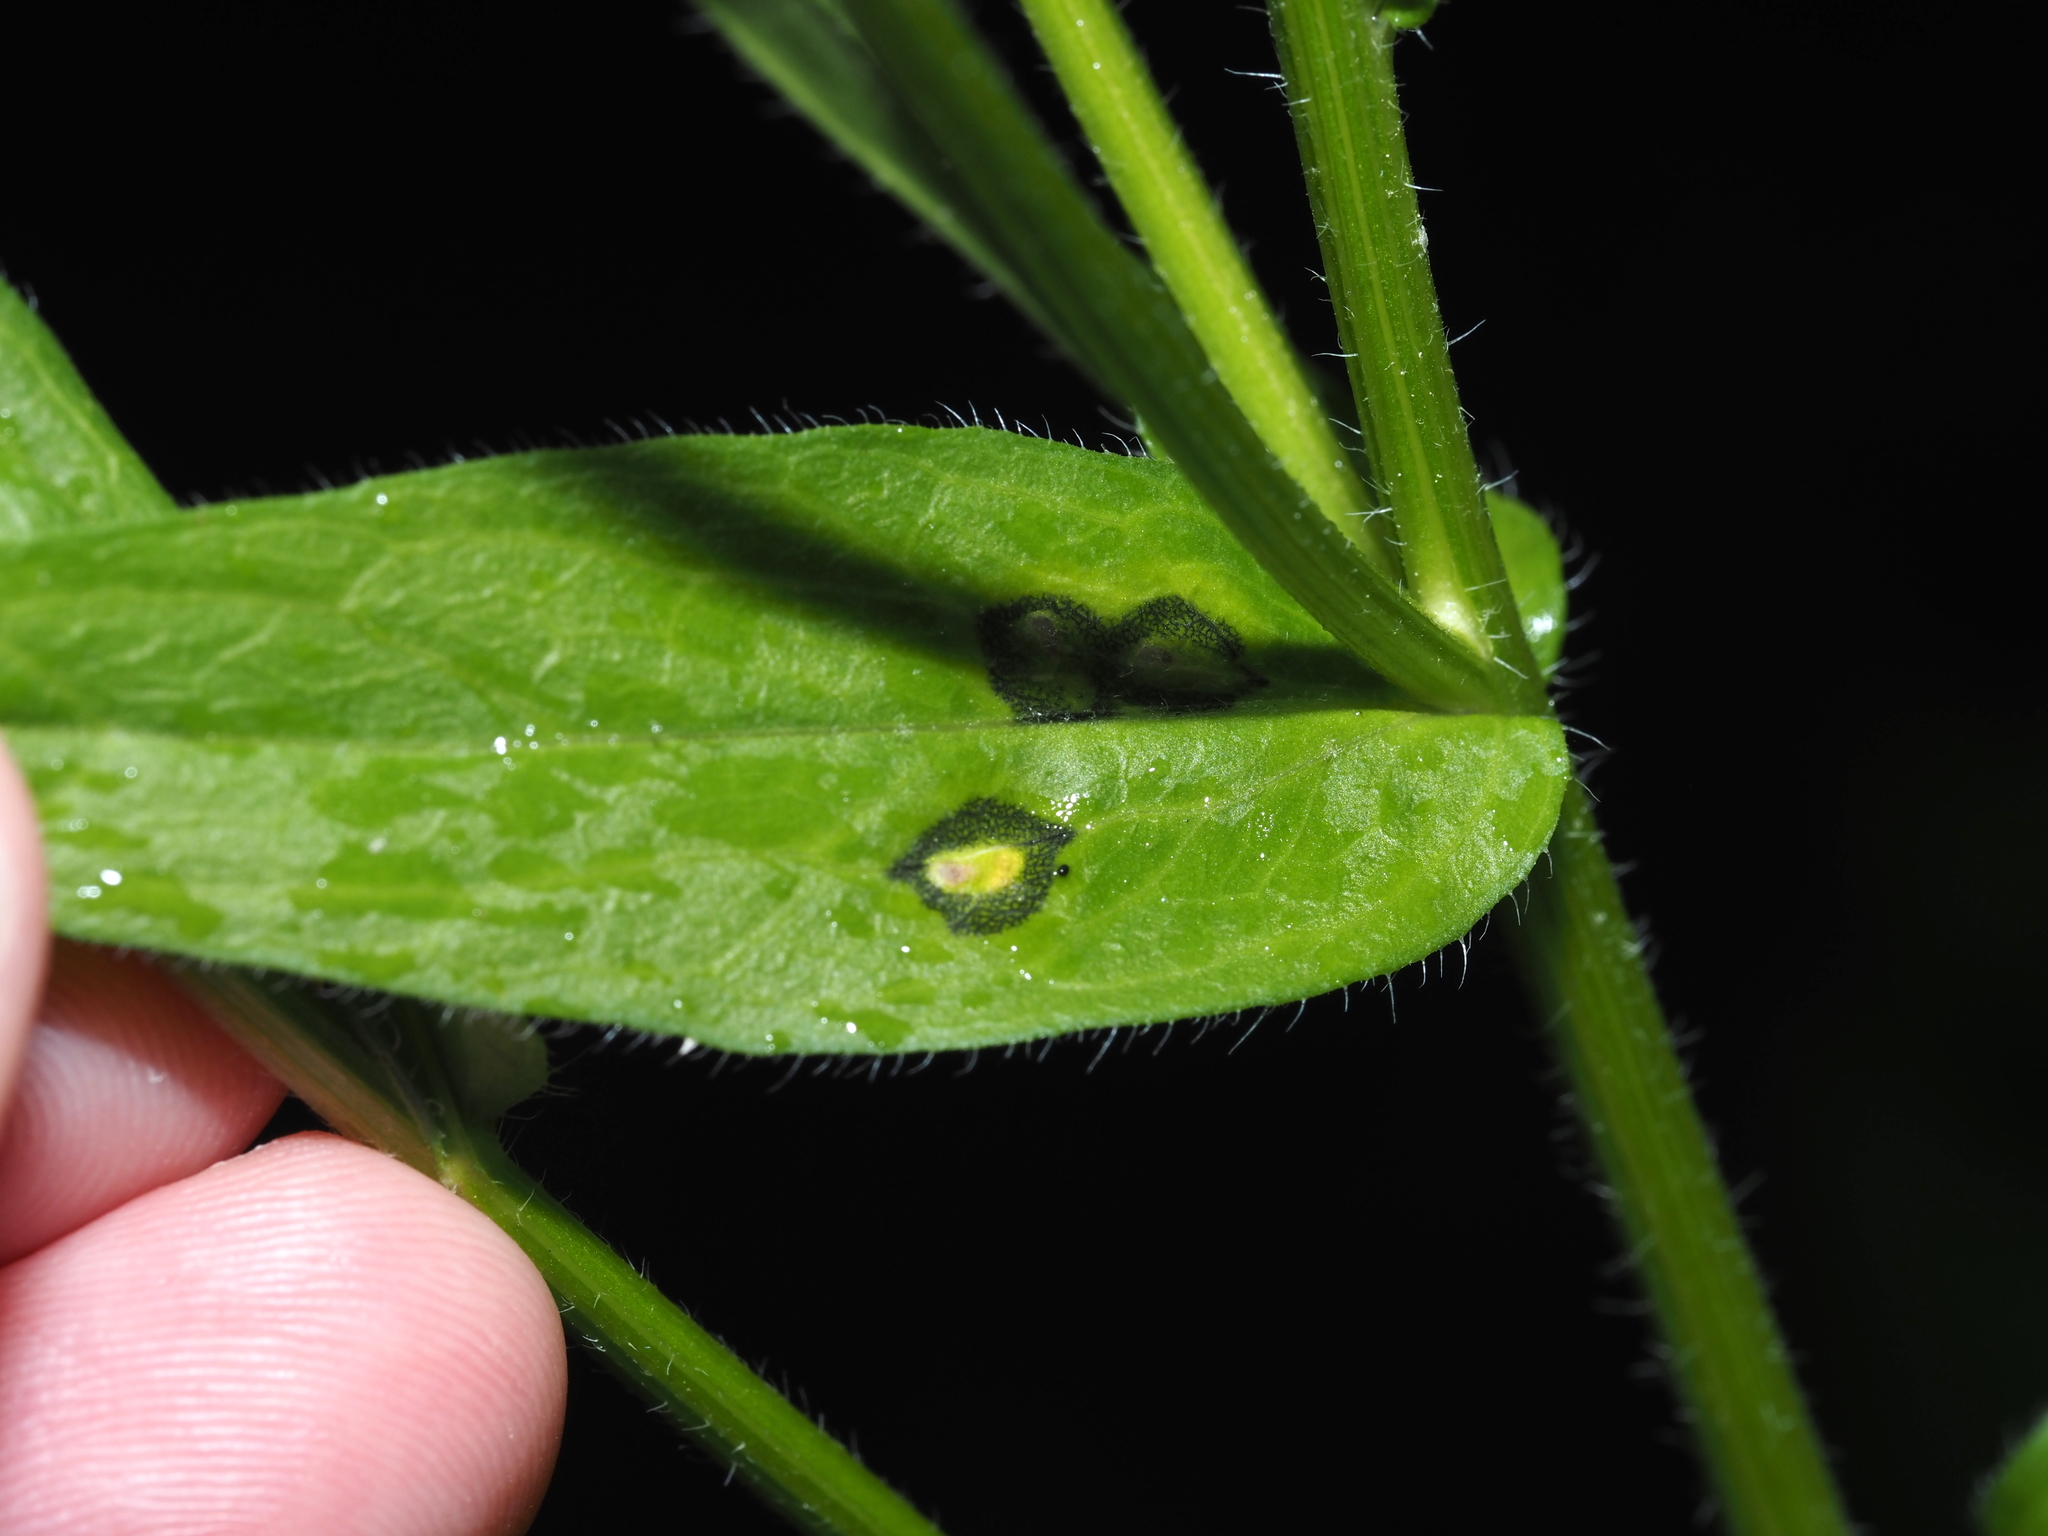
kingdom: Animalia
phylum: Arthropoda
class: Insecta
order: Diptera
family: Cecidomyiidae
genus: Asteromyia
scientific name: Asteromyia modesta
